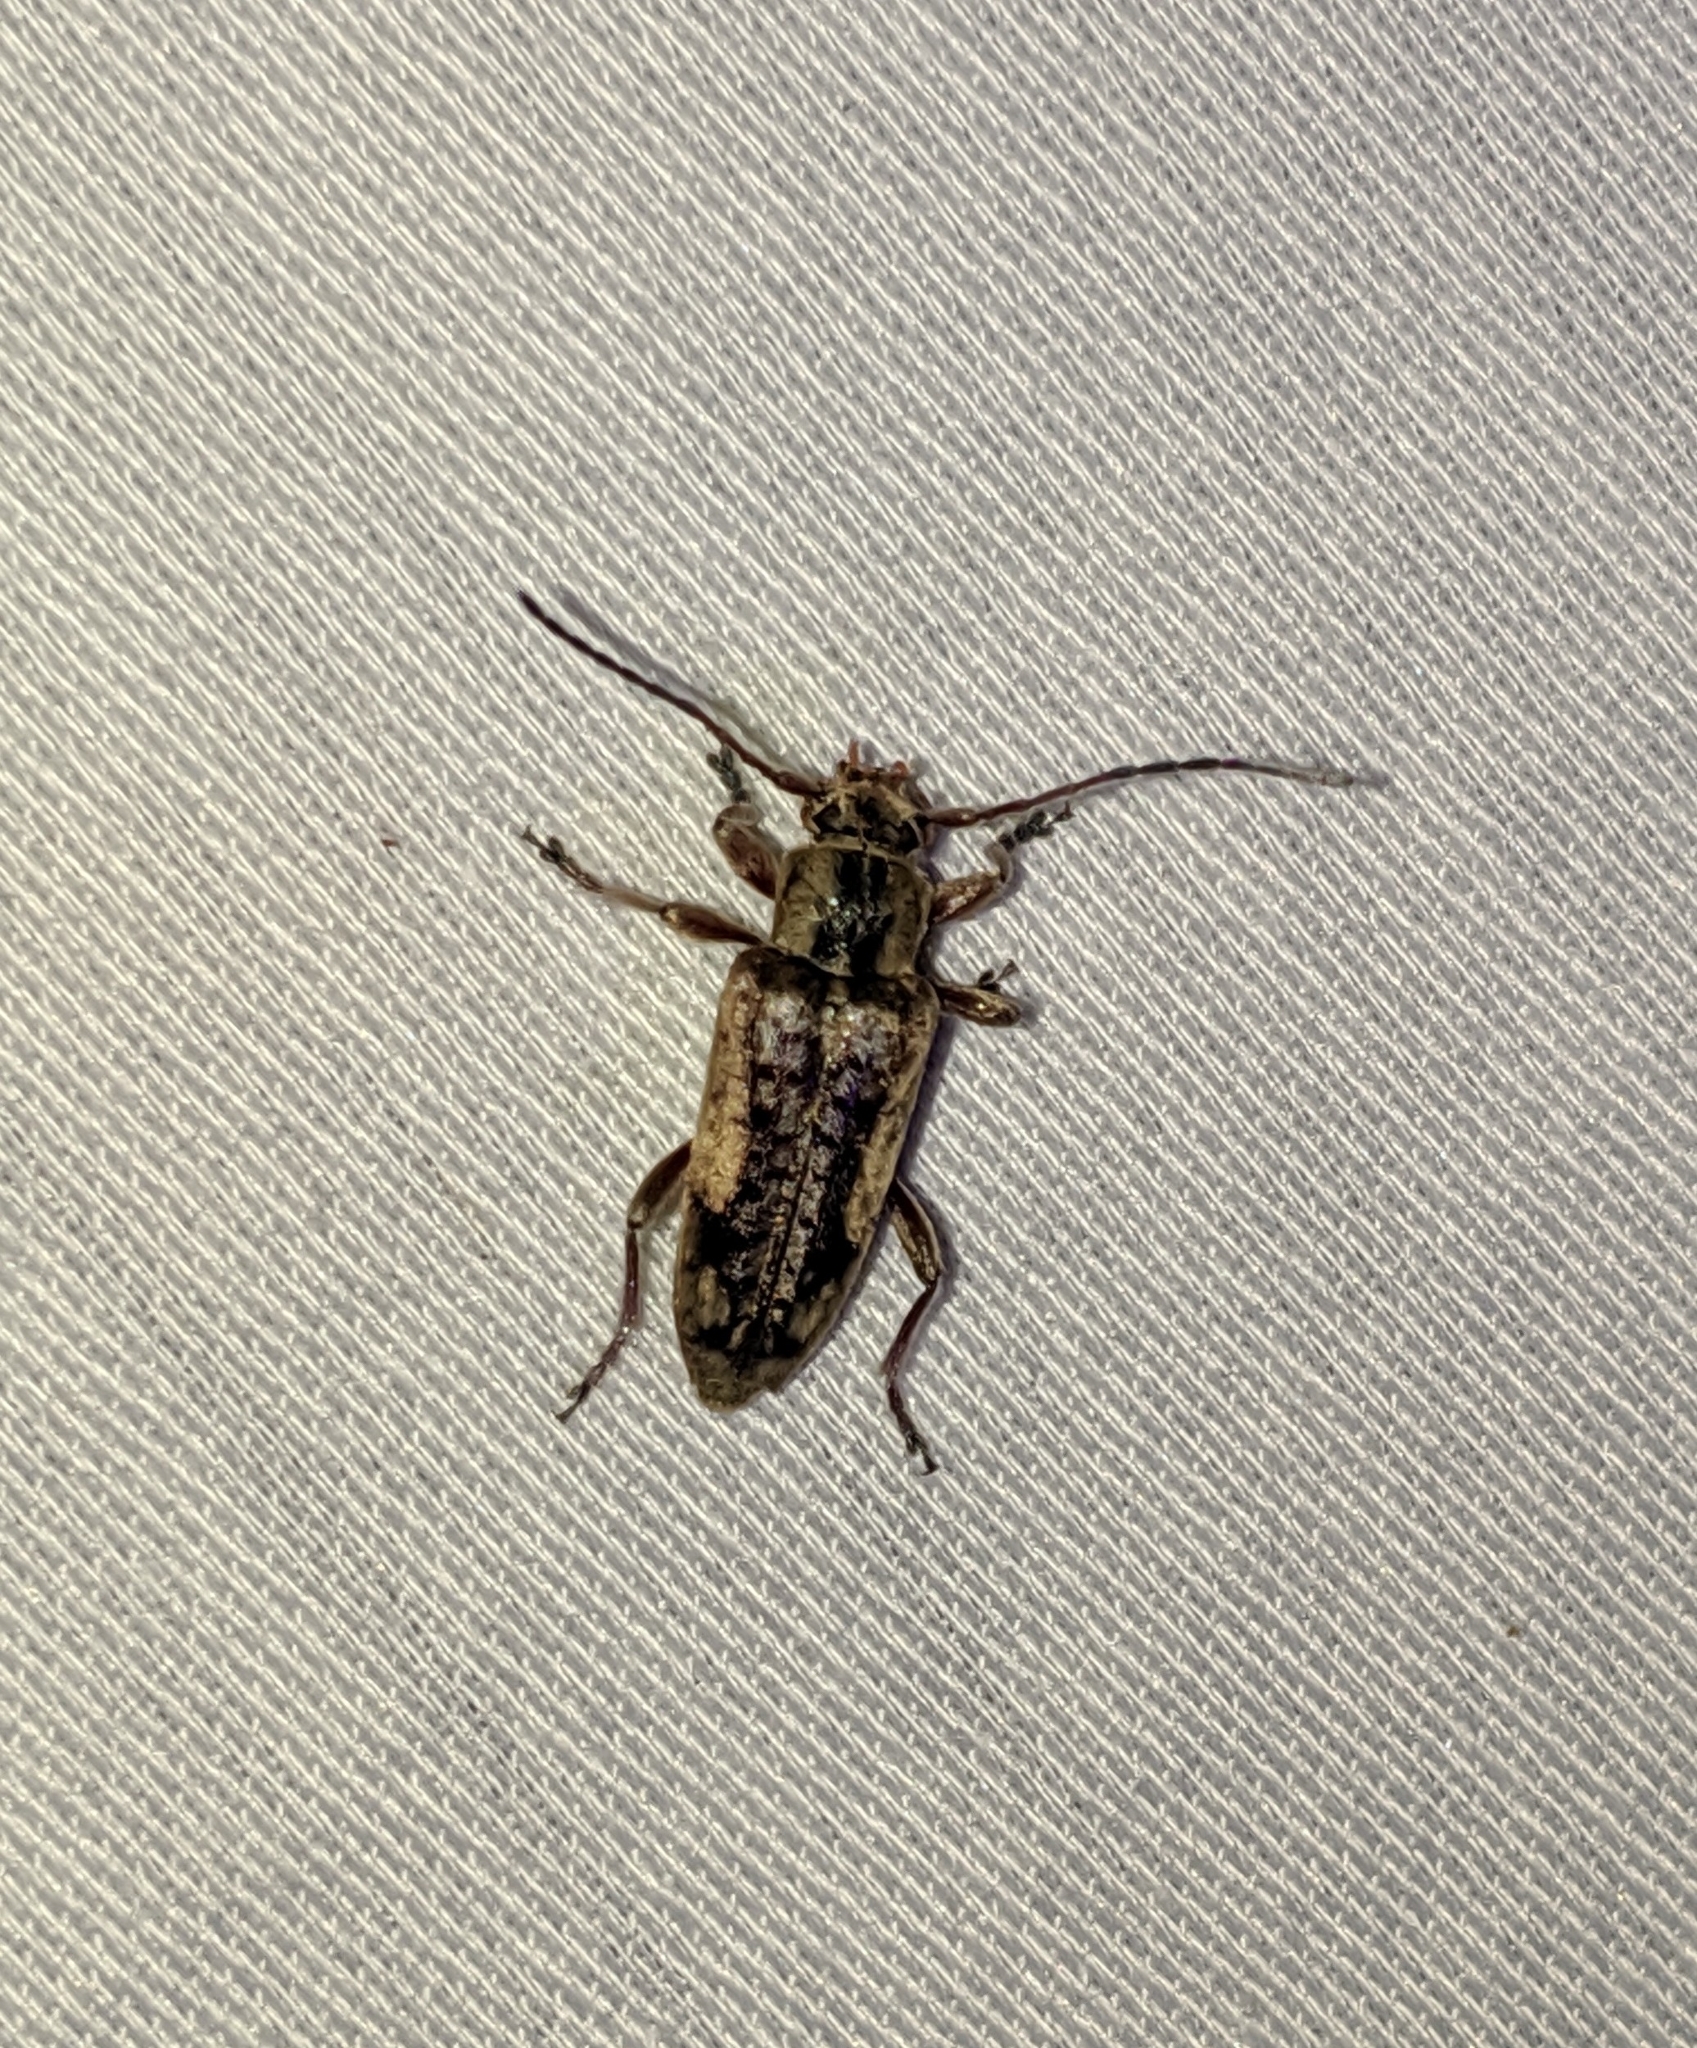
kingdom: Animalia
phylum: Arthropoda
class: Insecta
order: Coleoptera
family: Cerambycidae
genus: Atimia
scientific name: Atimia confusa
